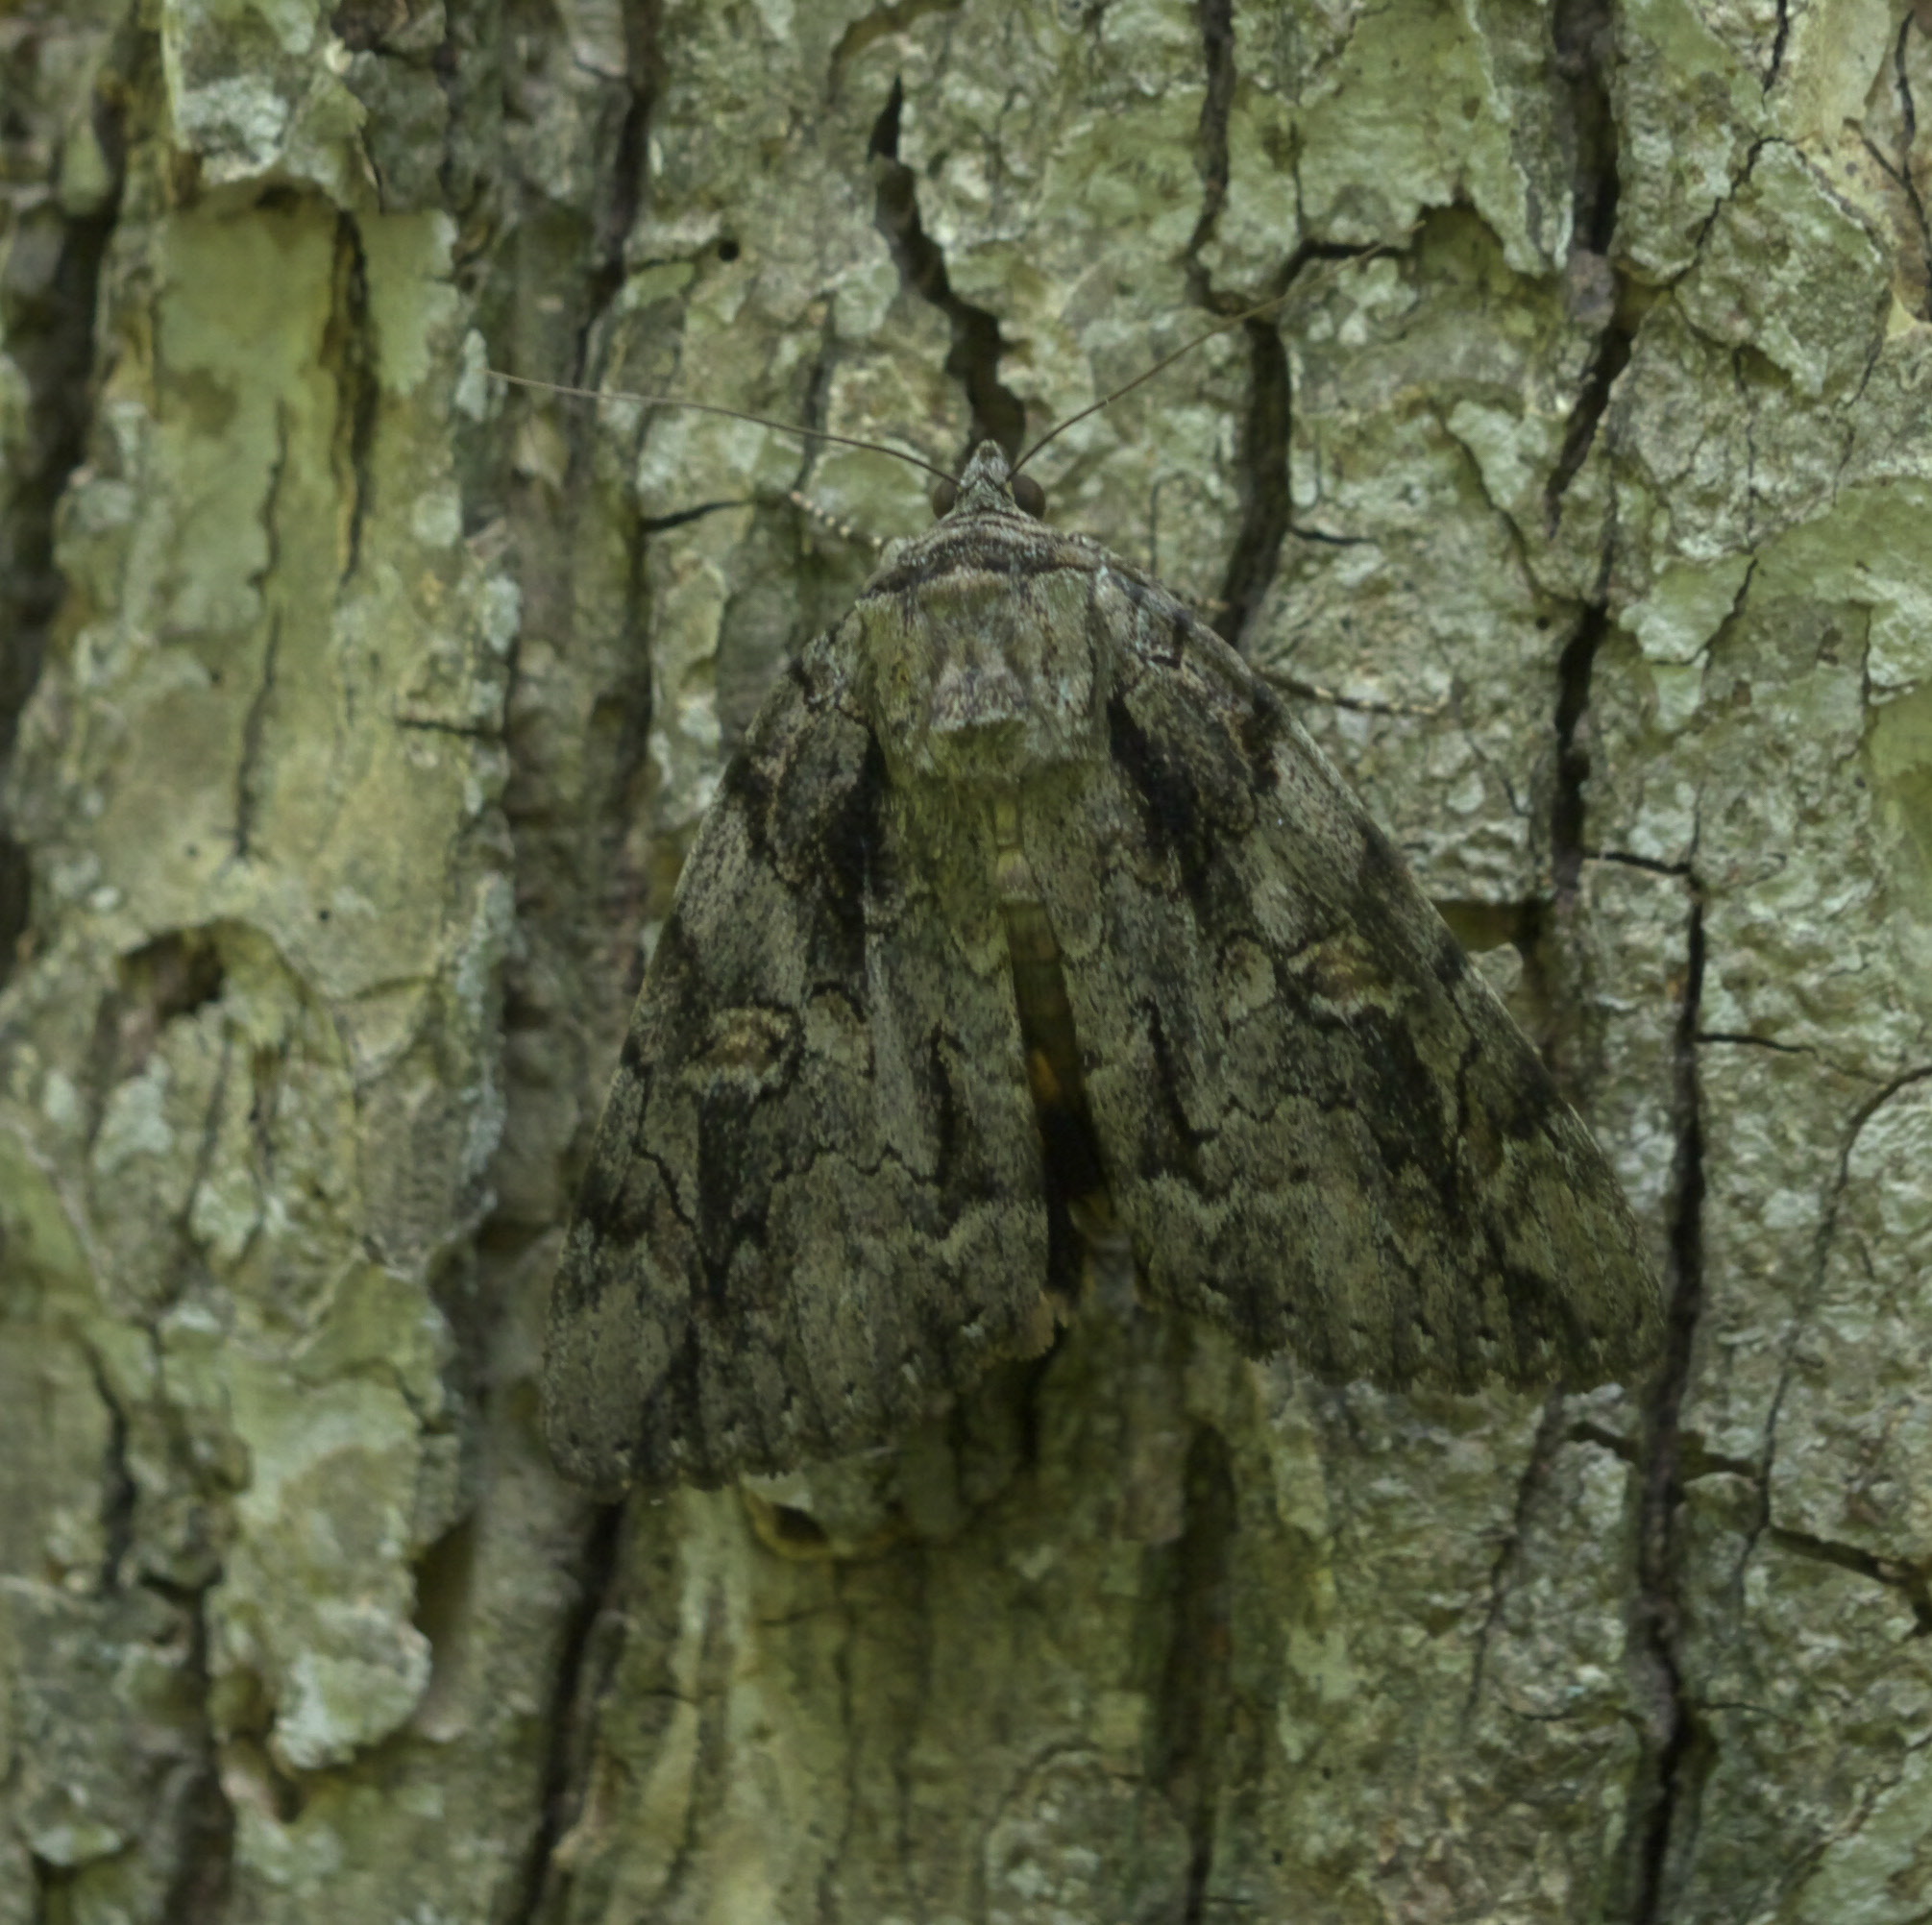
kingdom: Animalia
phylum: Arthropoda
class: Insecta
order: Lepidoptera
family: Erebidae
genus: Catocala
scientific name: Catocala neogama
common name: Bride underwing
